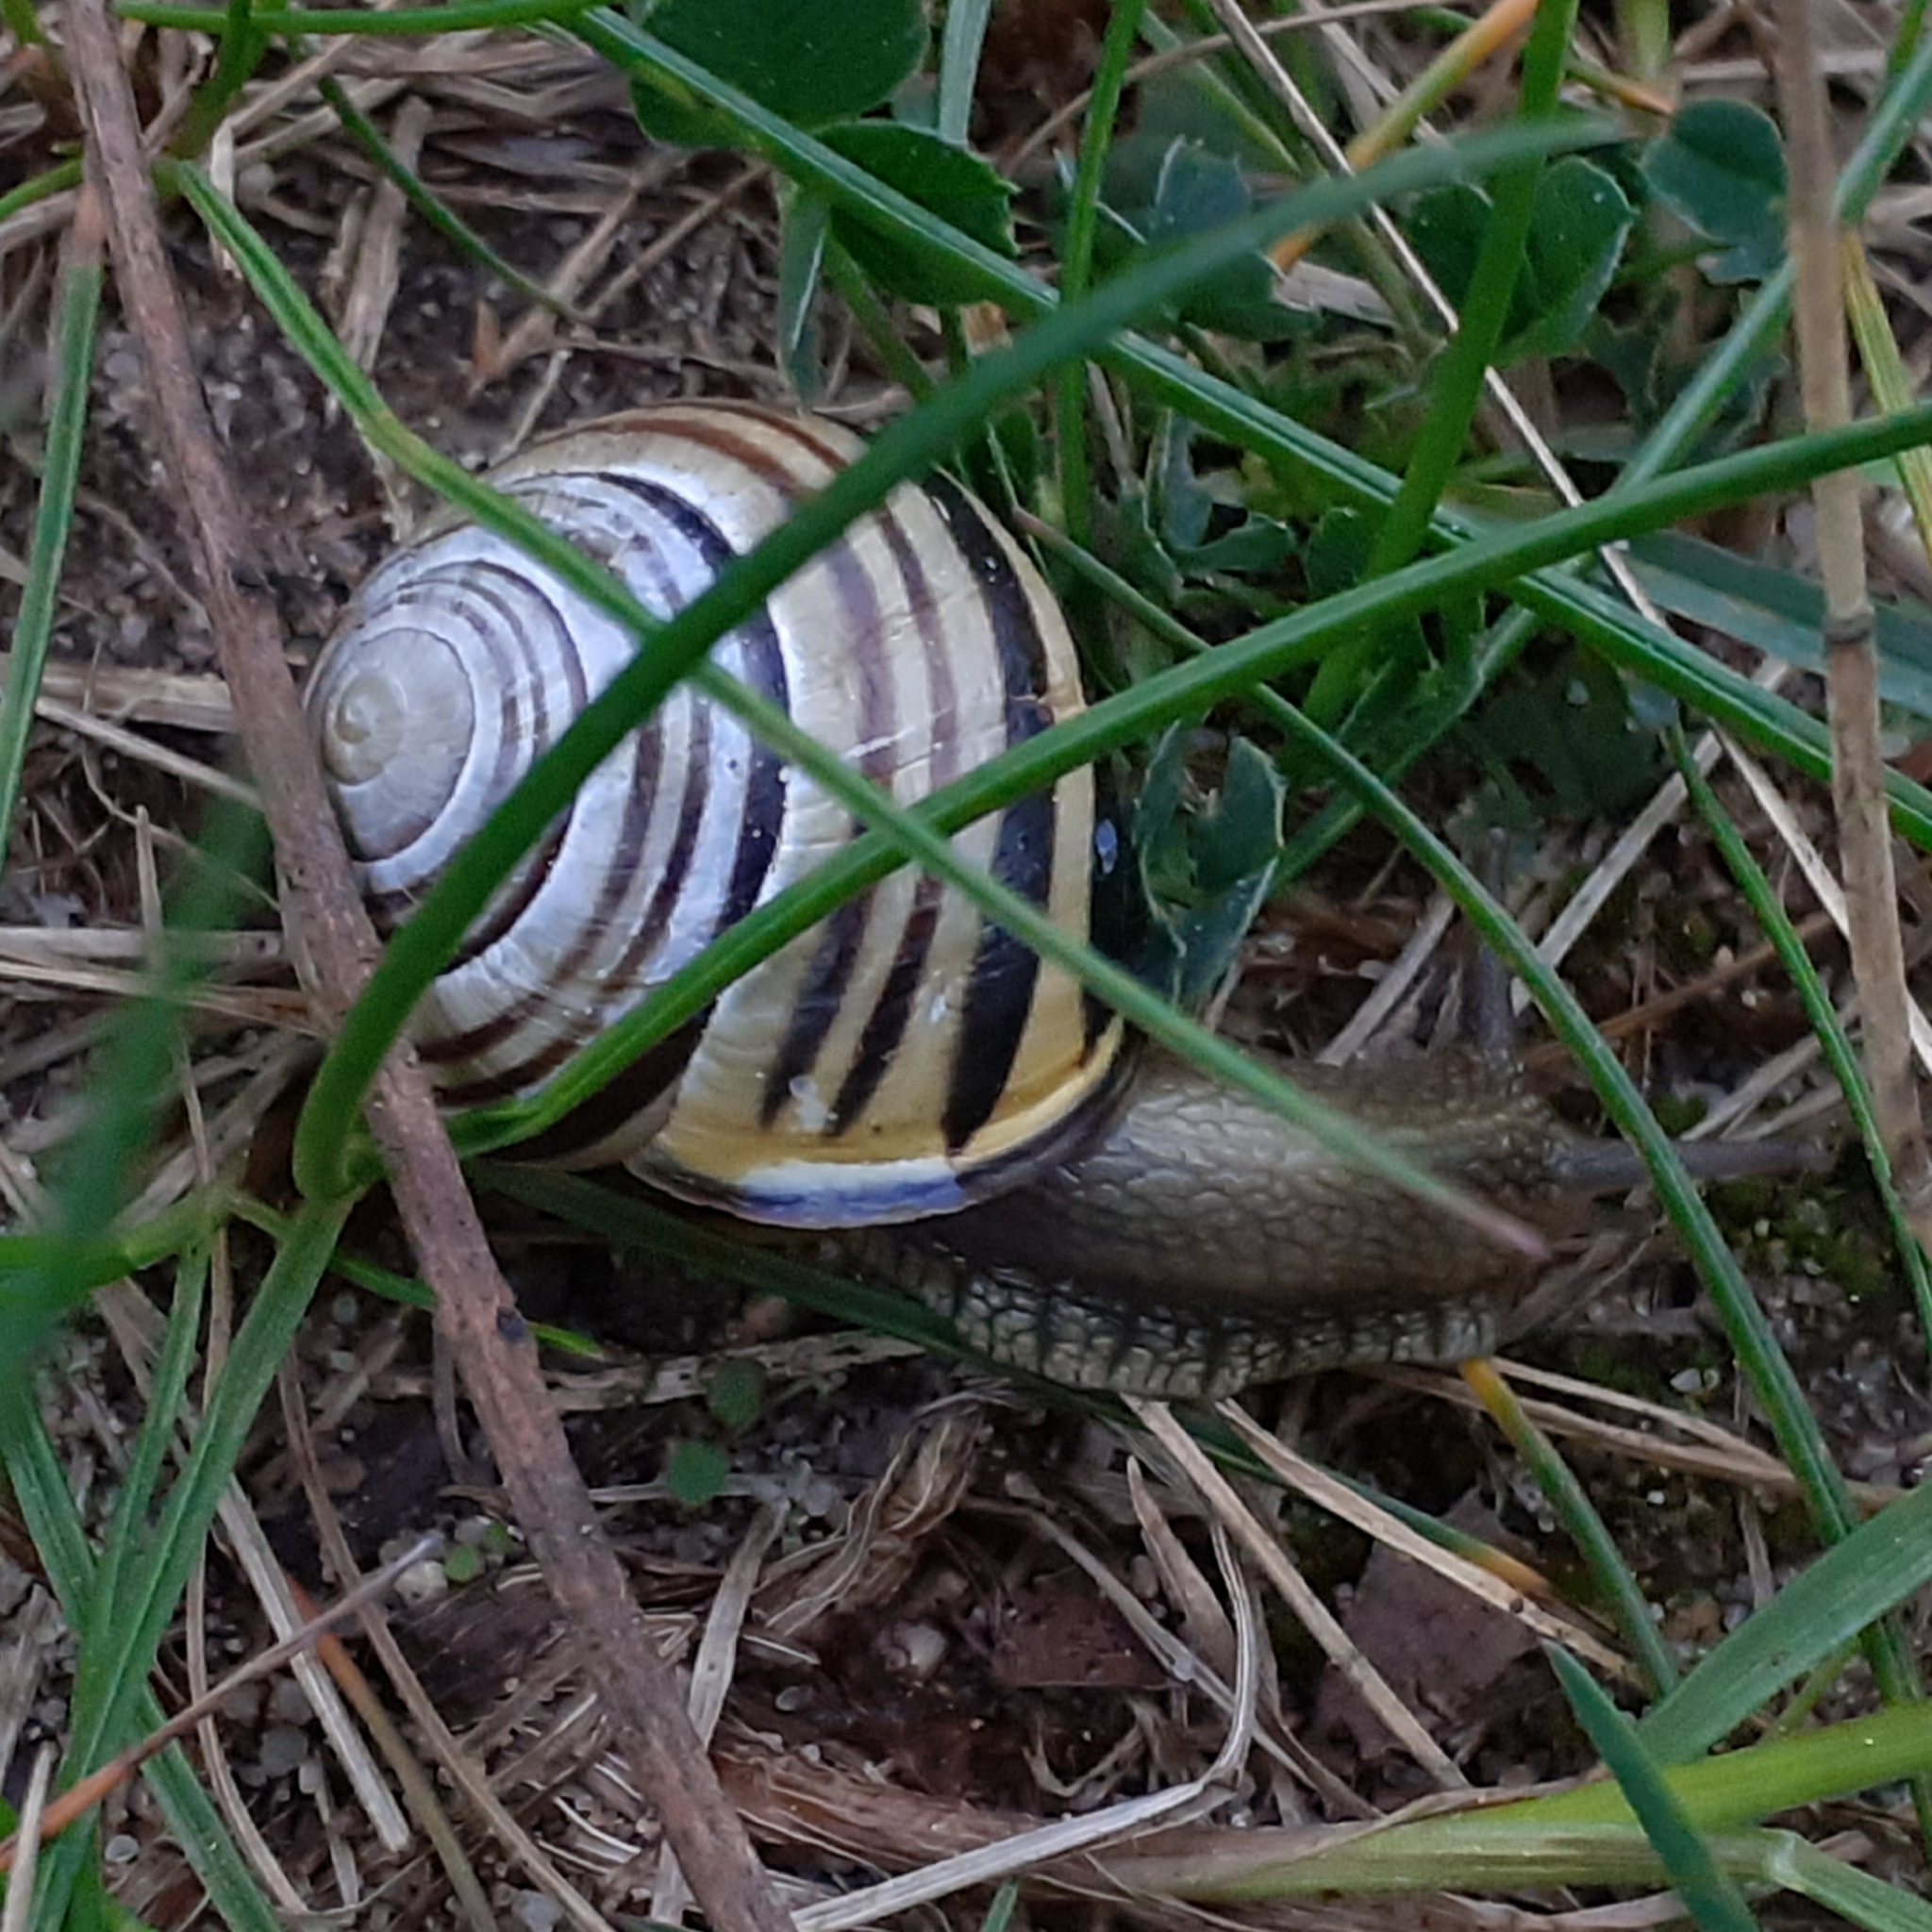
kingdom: Animalia
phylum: Mollusca
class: Gastropoda
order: Stylommatophora
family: Helicidae
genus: Cepaea
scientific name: Cepaea nemoralis
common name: Grovesnail
